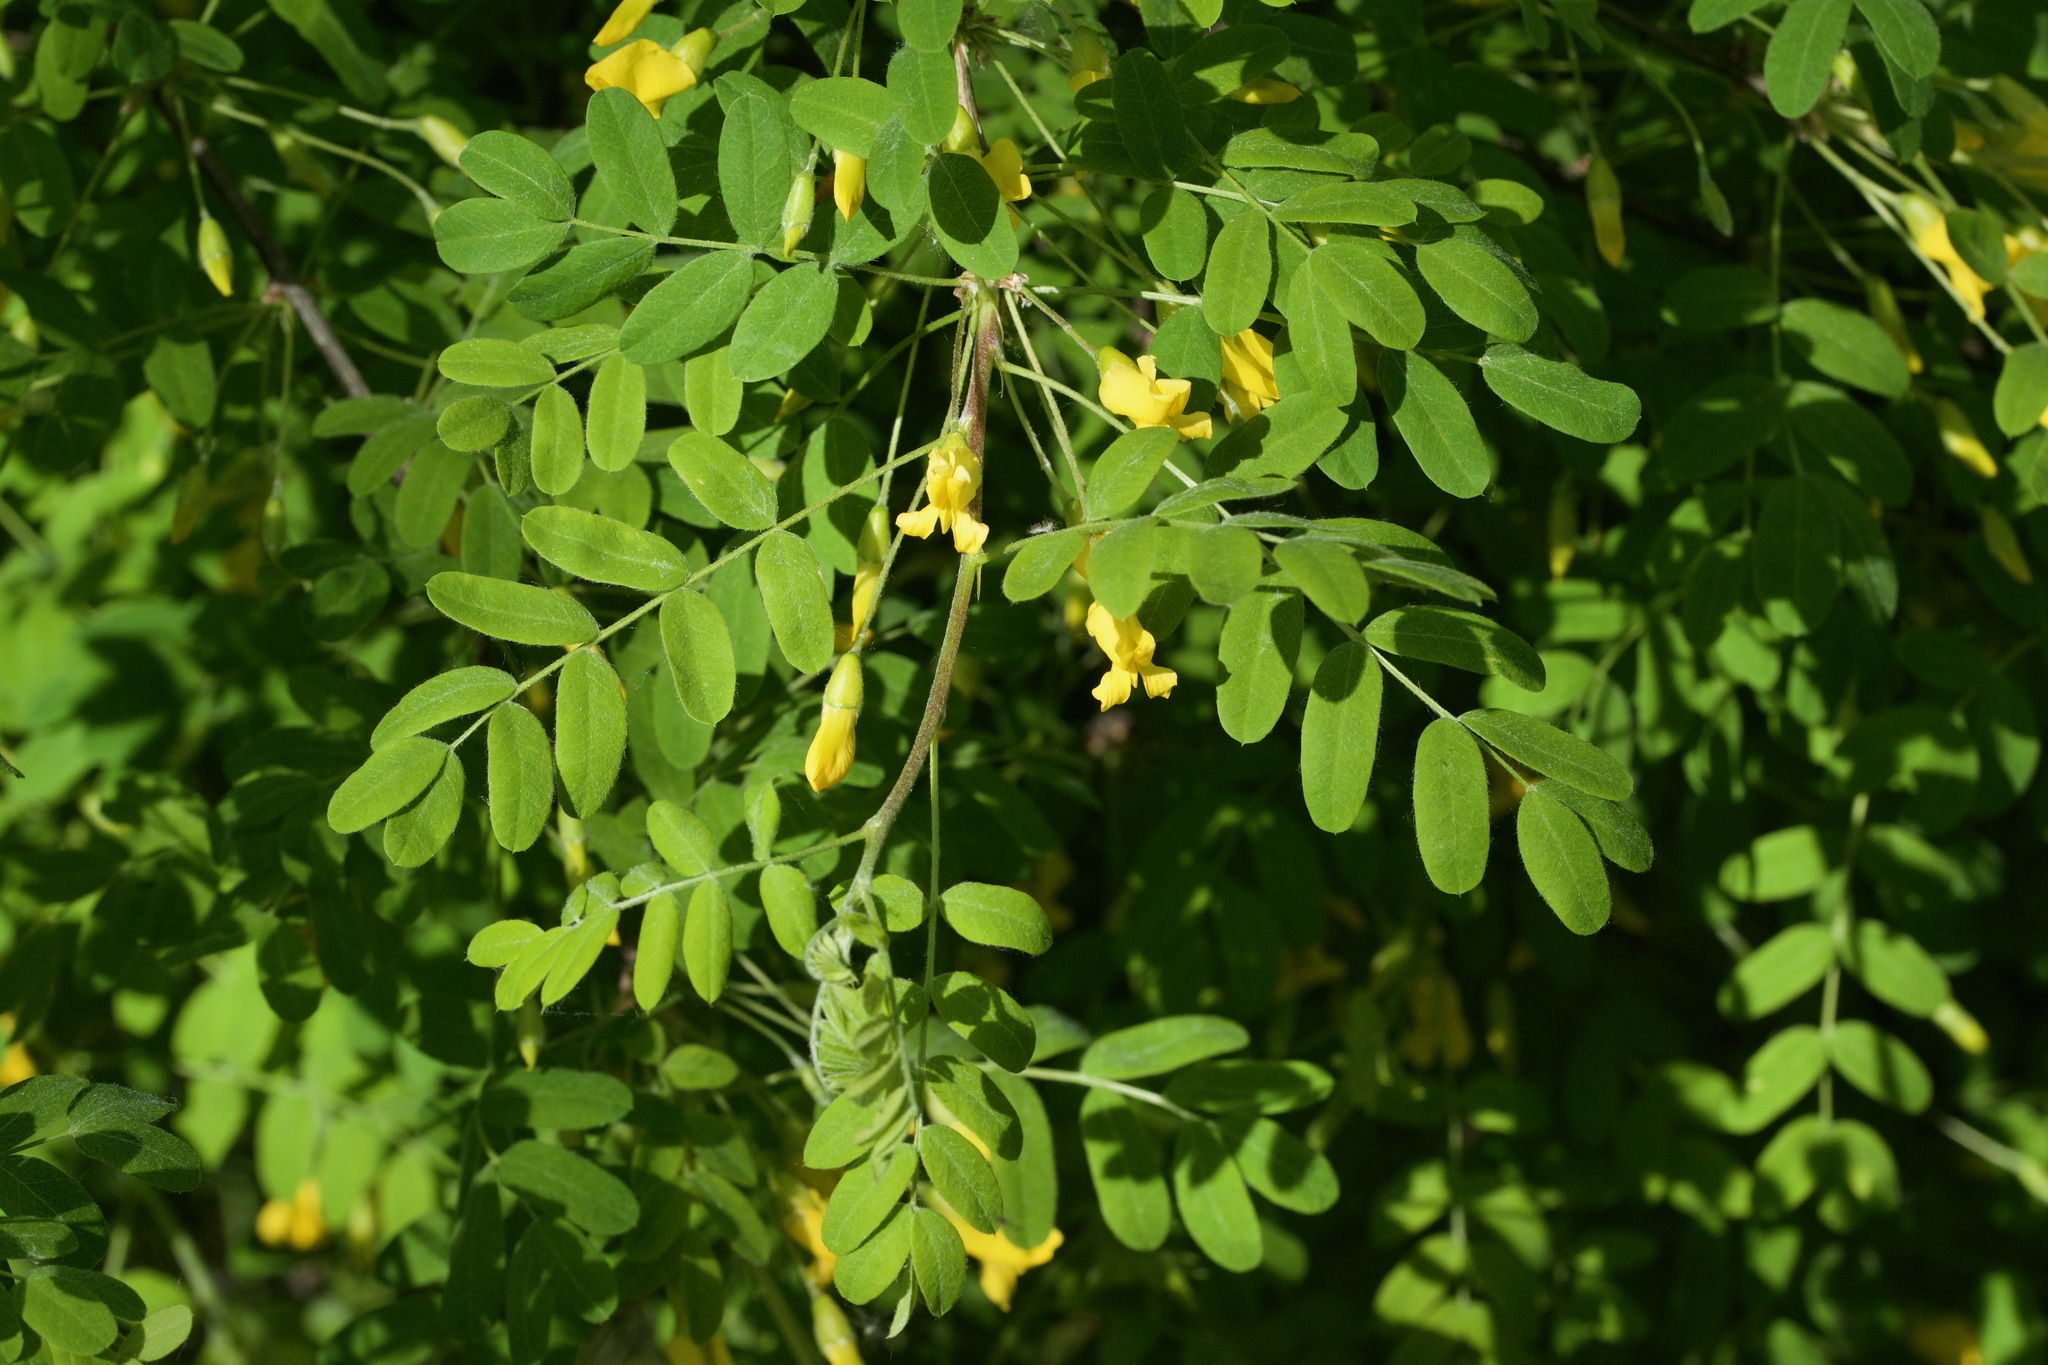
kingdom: Plantae
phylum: Tracheophyta
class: Magnoliopsida
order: Fabales
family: Fabaceae
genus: Caragana
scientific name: Caragana arborescens
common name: Siberian peashrub
